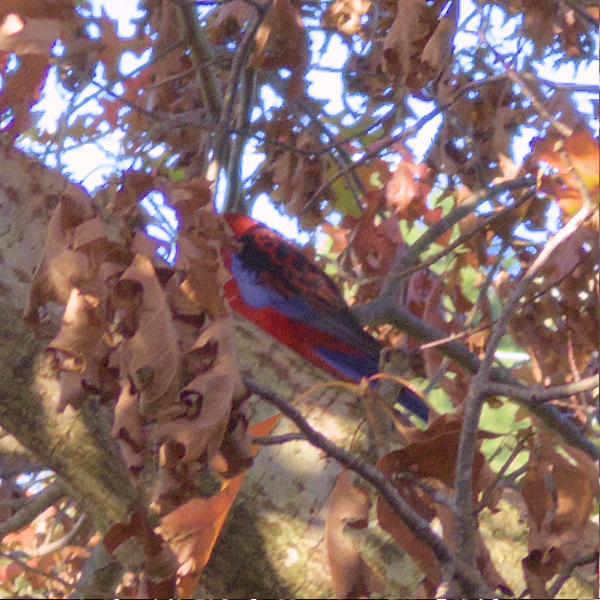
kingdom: Animalia
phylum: Chordata
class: Aves
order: Psittaciformes
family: Psittacidae
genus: Platycercus
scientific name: Platycercus elegans
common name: Crimson rosella
